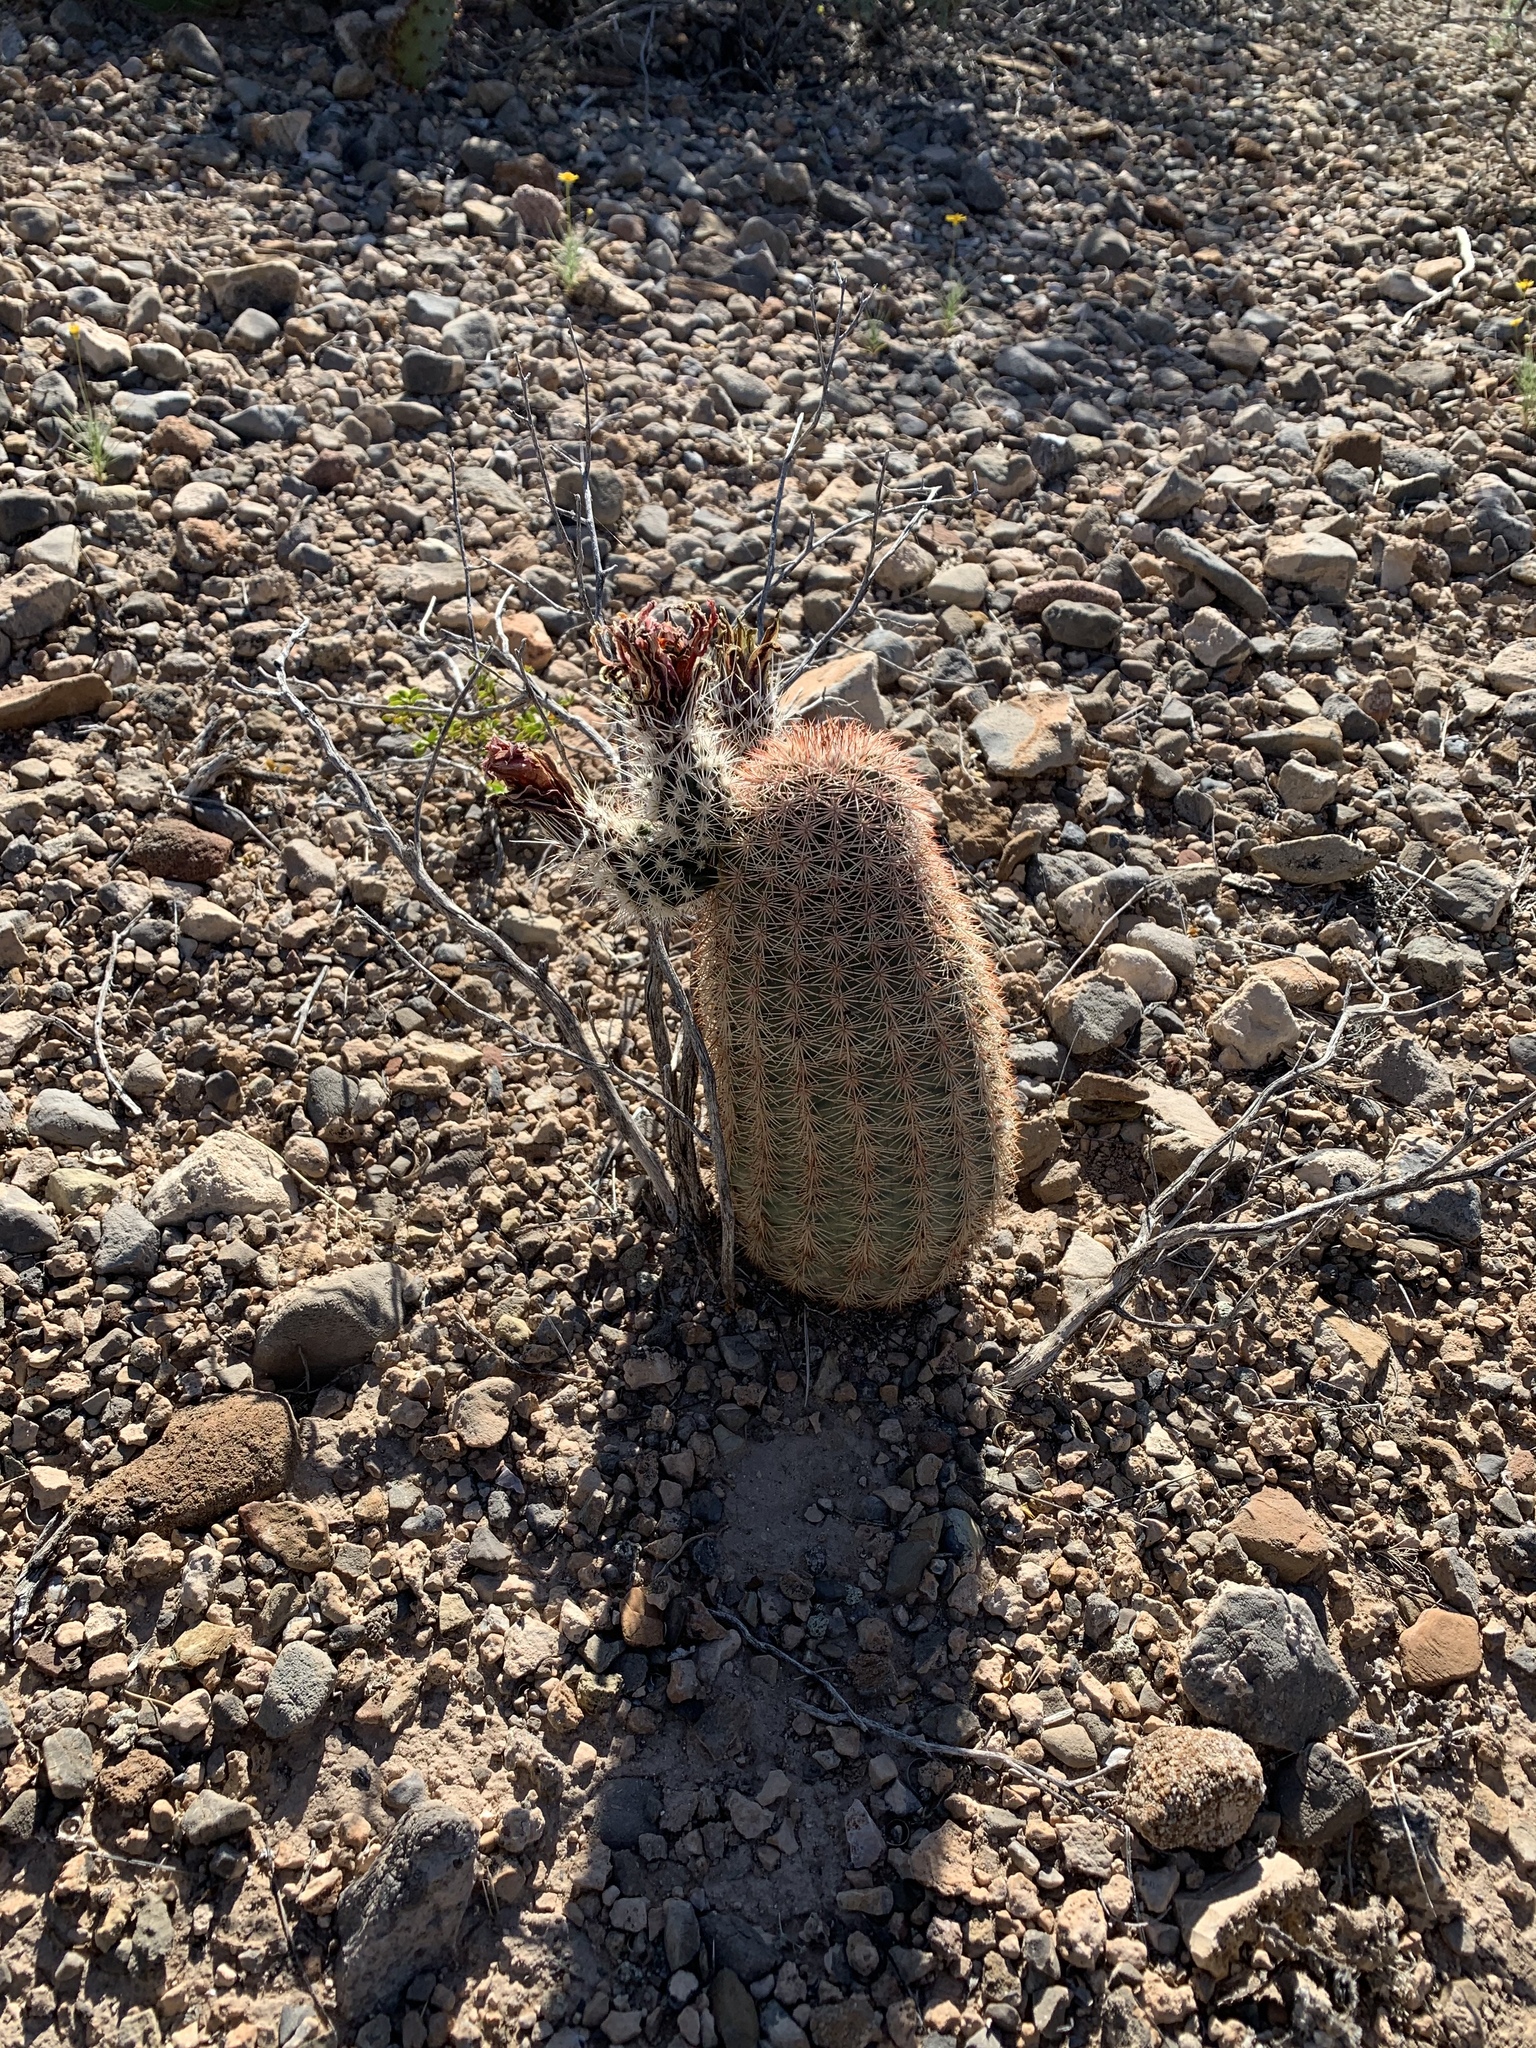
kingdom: Plantae
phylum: Tracheophyta
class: Magnoliopsida
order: Caryophyllales
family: Cactaceae
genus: Echinocereus
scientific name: Echinocereus dasyacanthus
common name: Spiny hedgehog cactus
